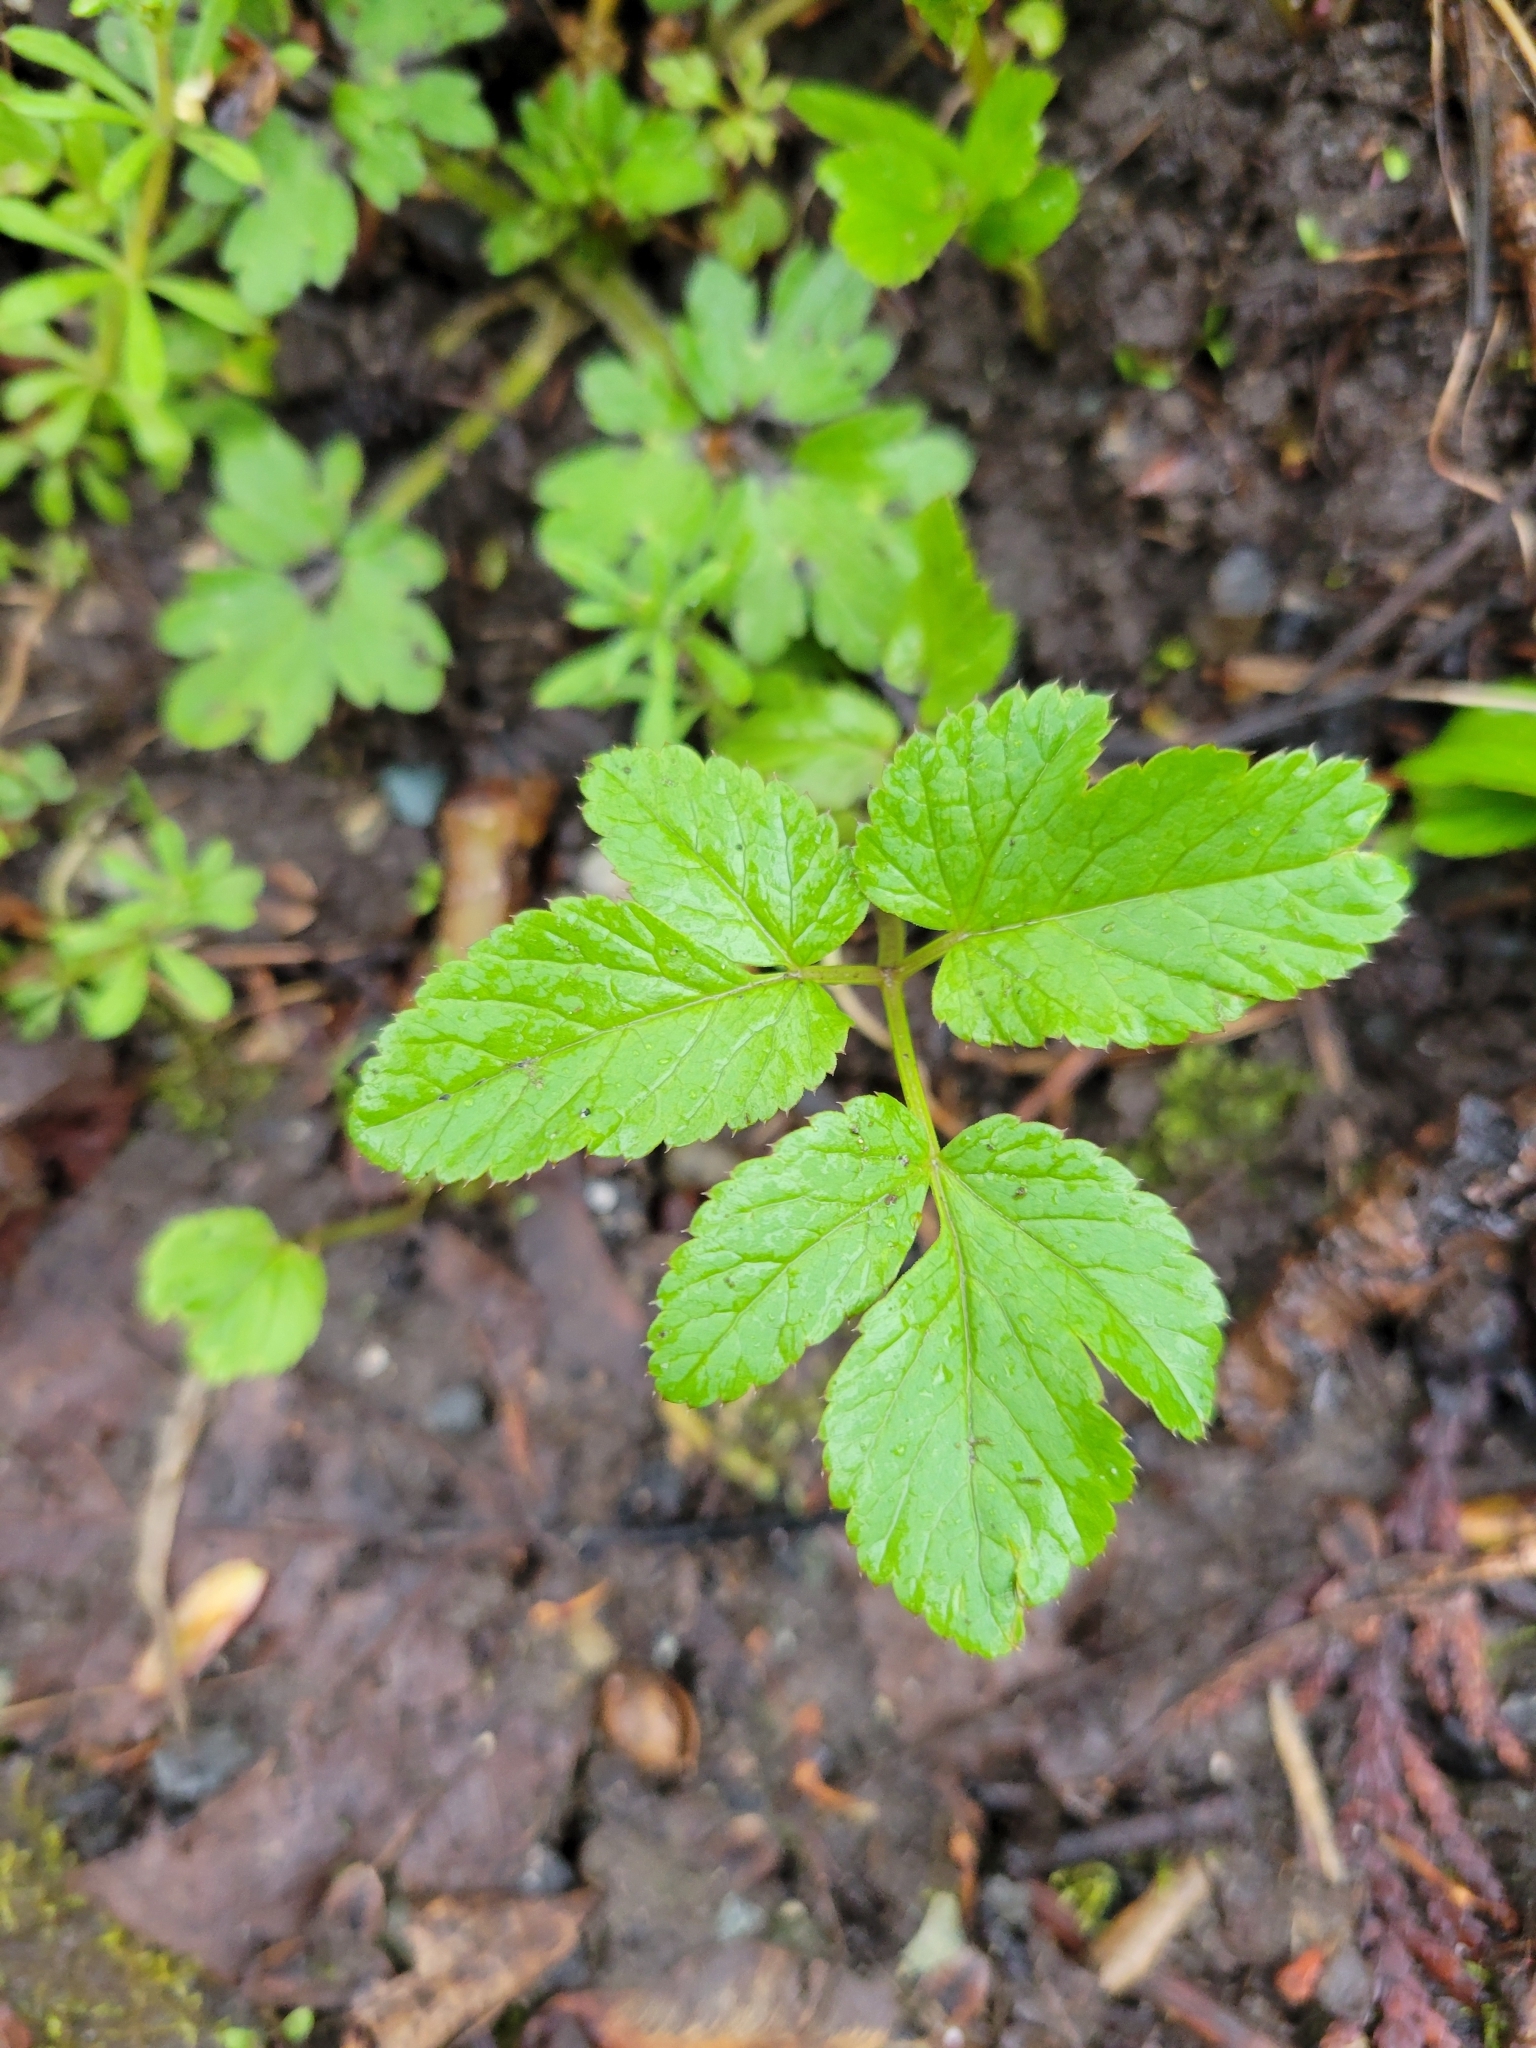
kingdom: Plantae
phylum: Tracheophyta
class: Magnoliopsida
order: Apiales
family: Apiaceae
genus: Aegopodium
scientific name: Aegopodium podagraria
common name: Ground-elder
